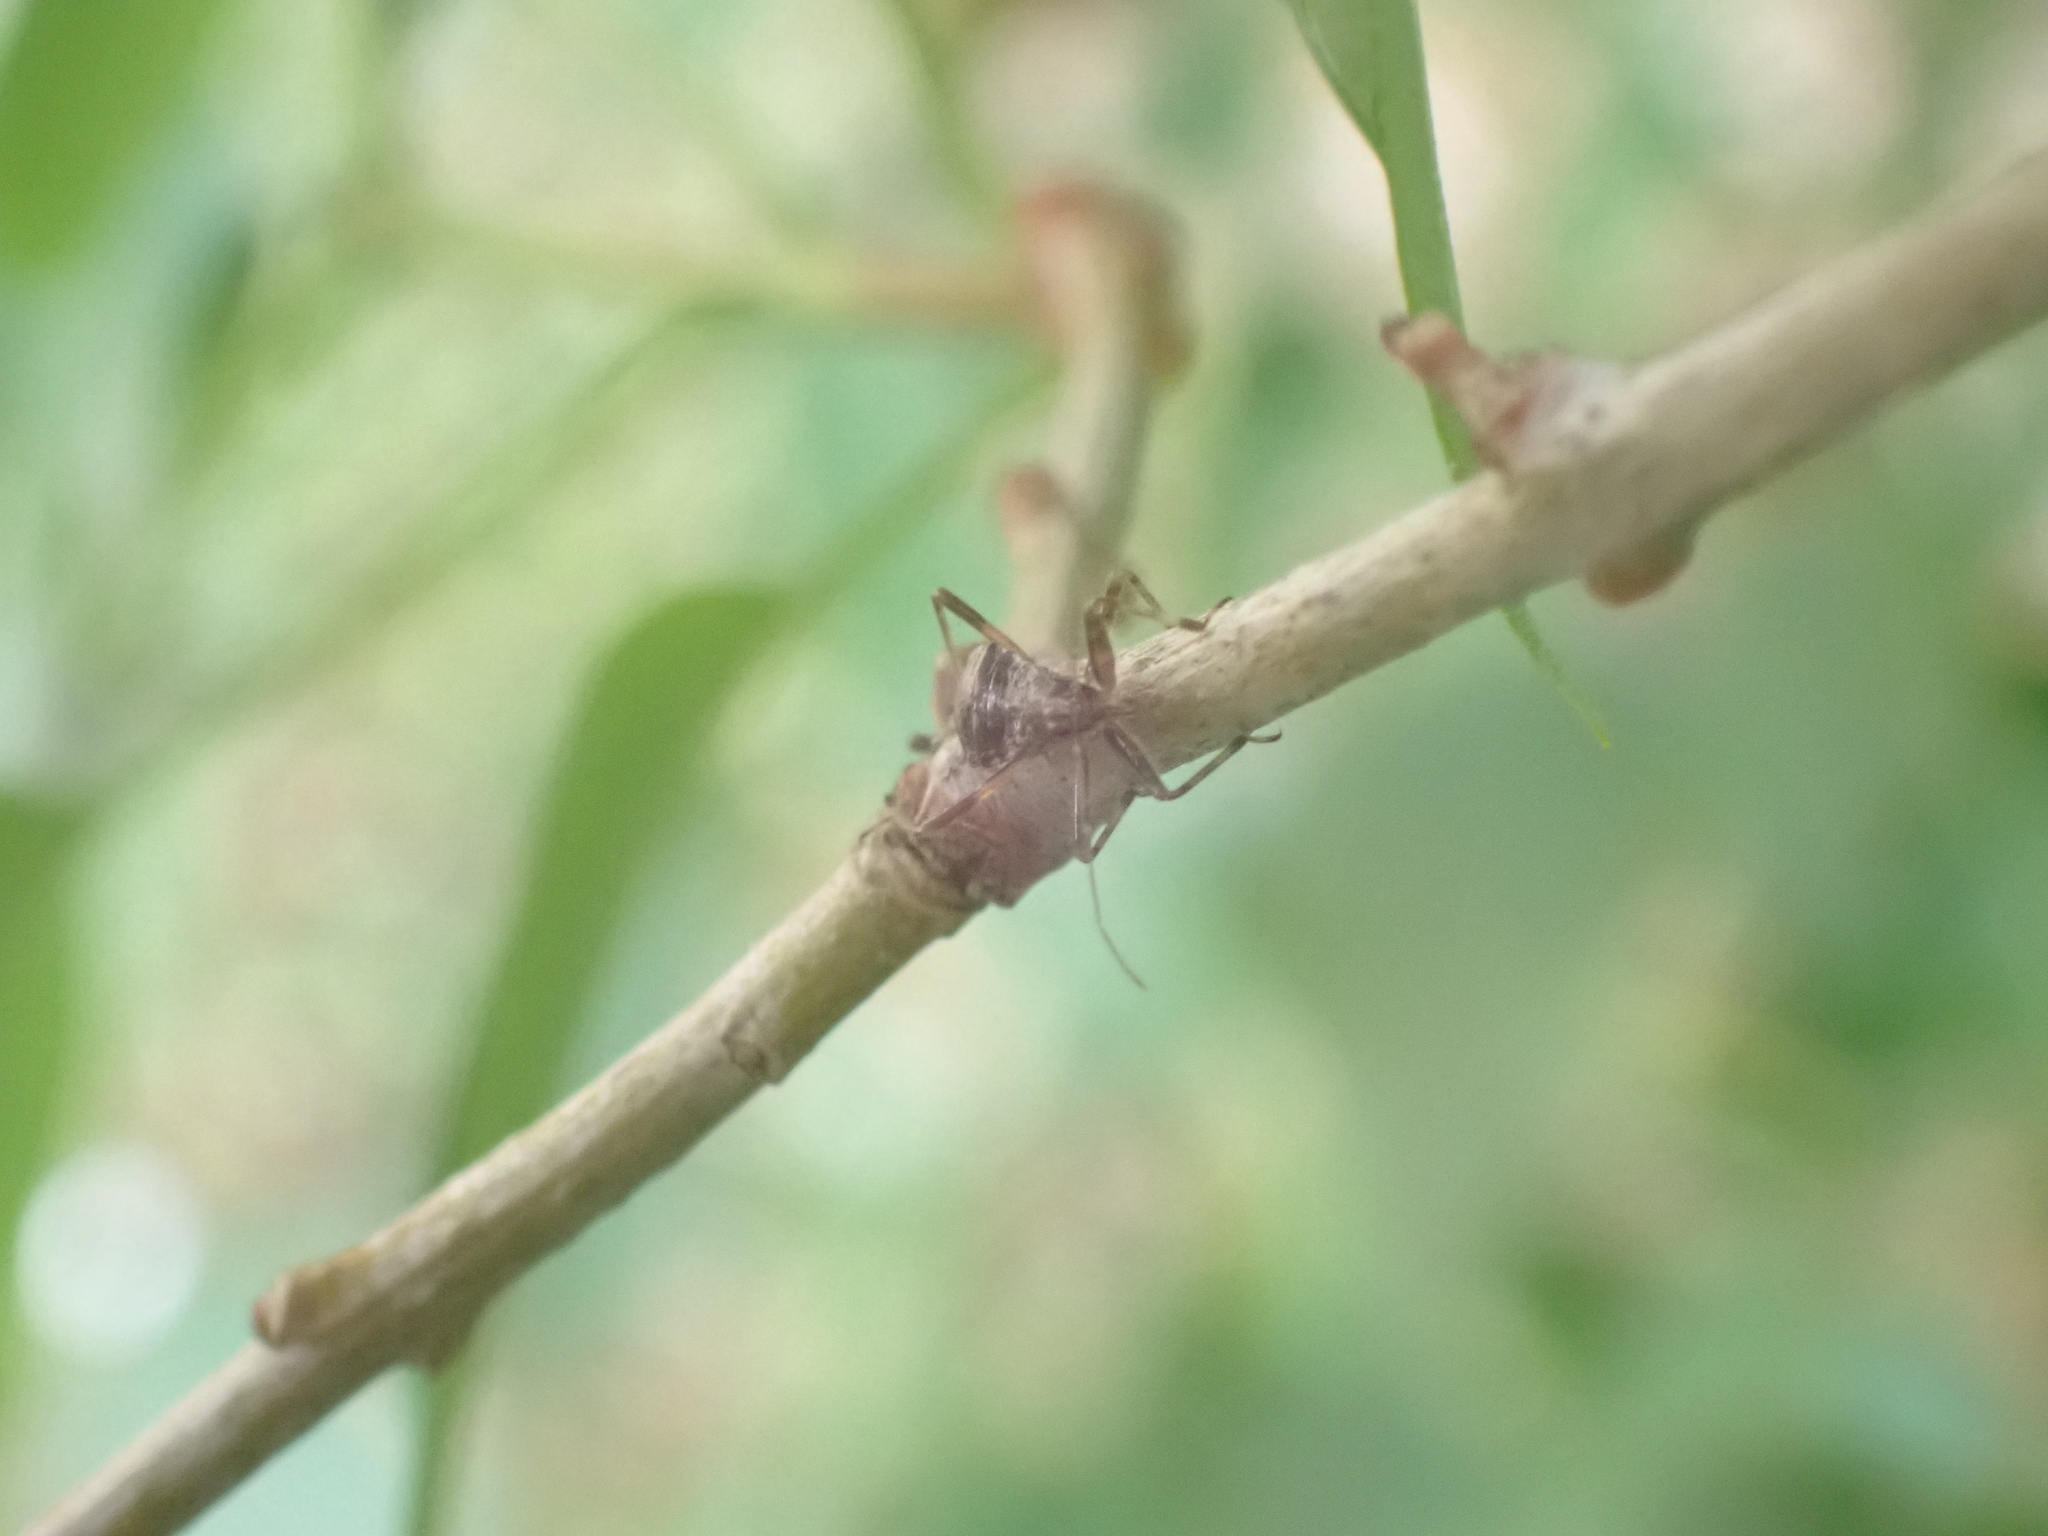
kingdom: Animalia
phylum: Arthropoda
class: Insecta
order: Hemiptera
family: Nabidae
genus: Himacerus
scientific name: Himacerus apterus
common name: Tree damsel bug
